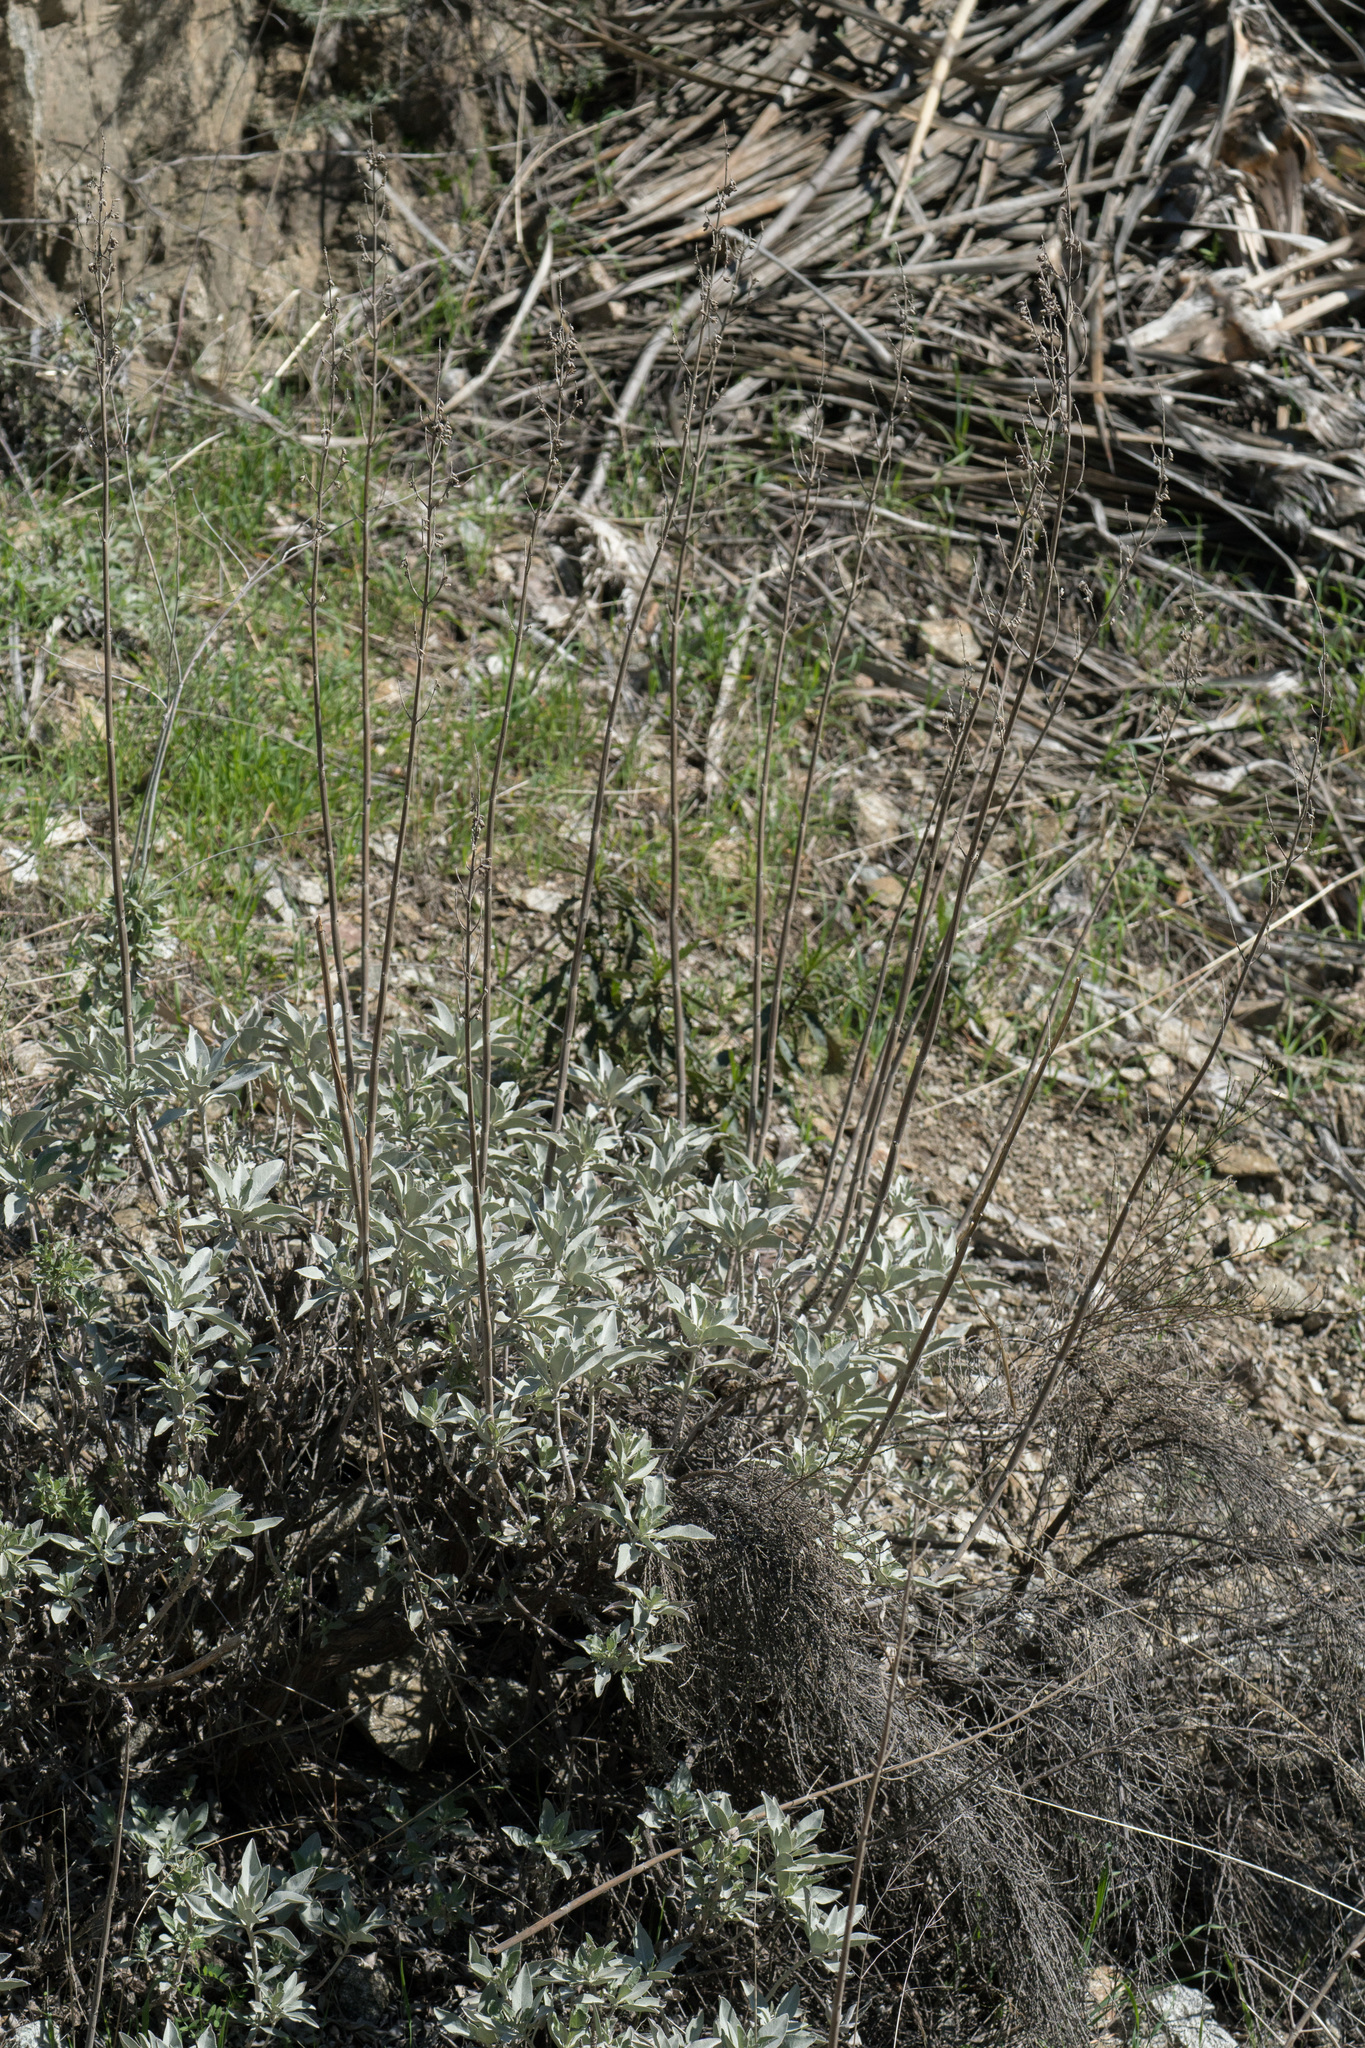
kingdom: Plantae
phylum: Tracheophyta
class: Magnoliopsida
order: Lamiales
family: Lamiaceae
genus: Salvia
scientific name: Salvia apiana
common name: White sage
